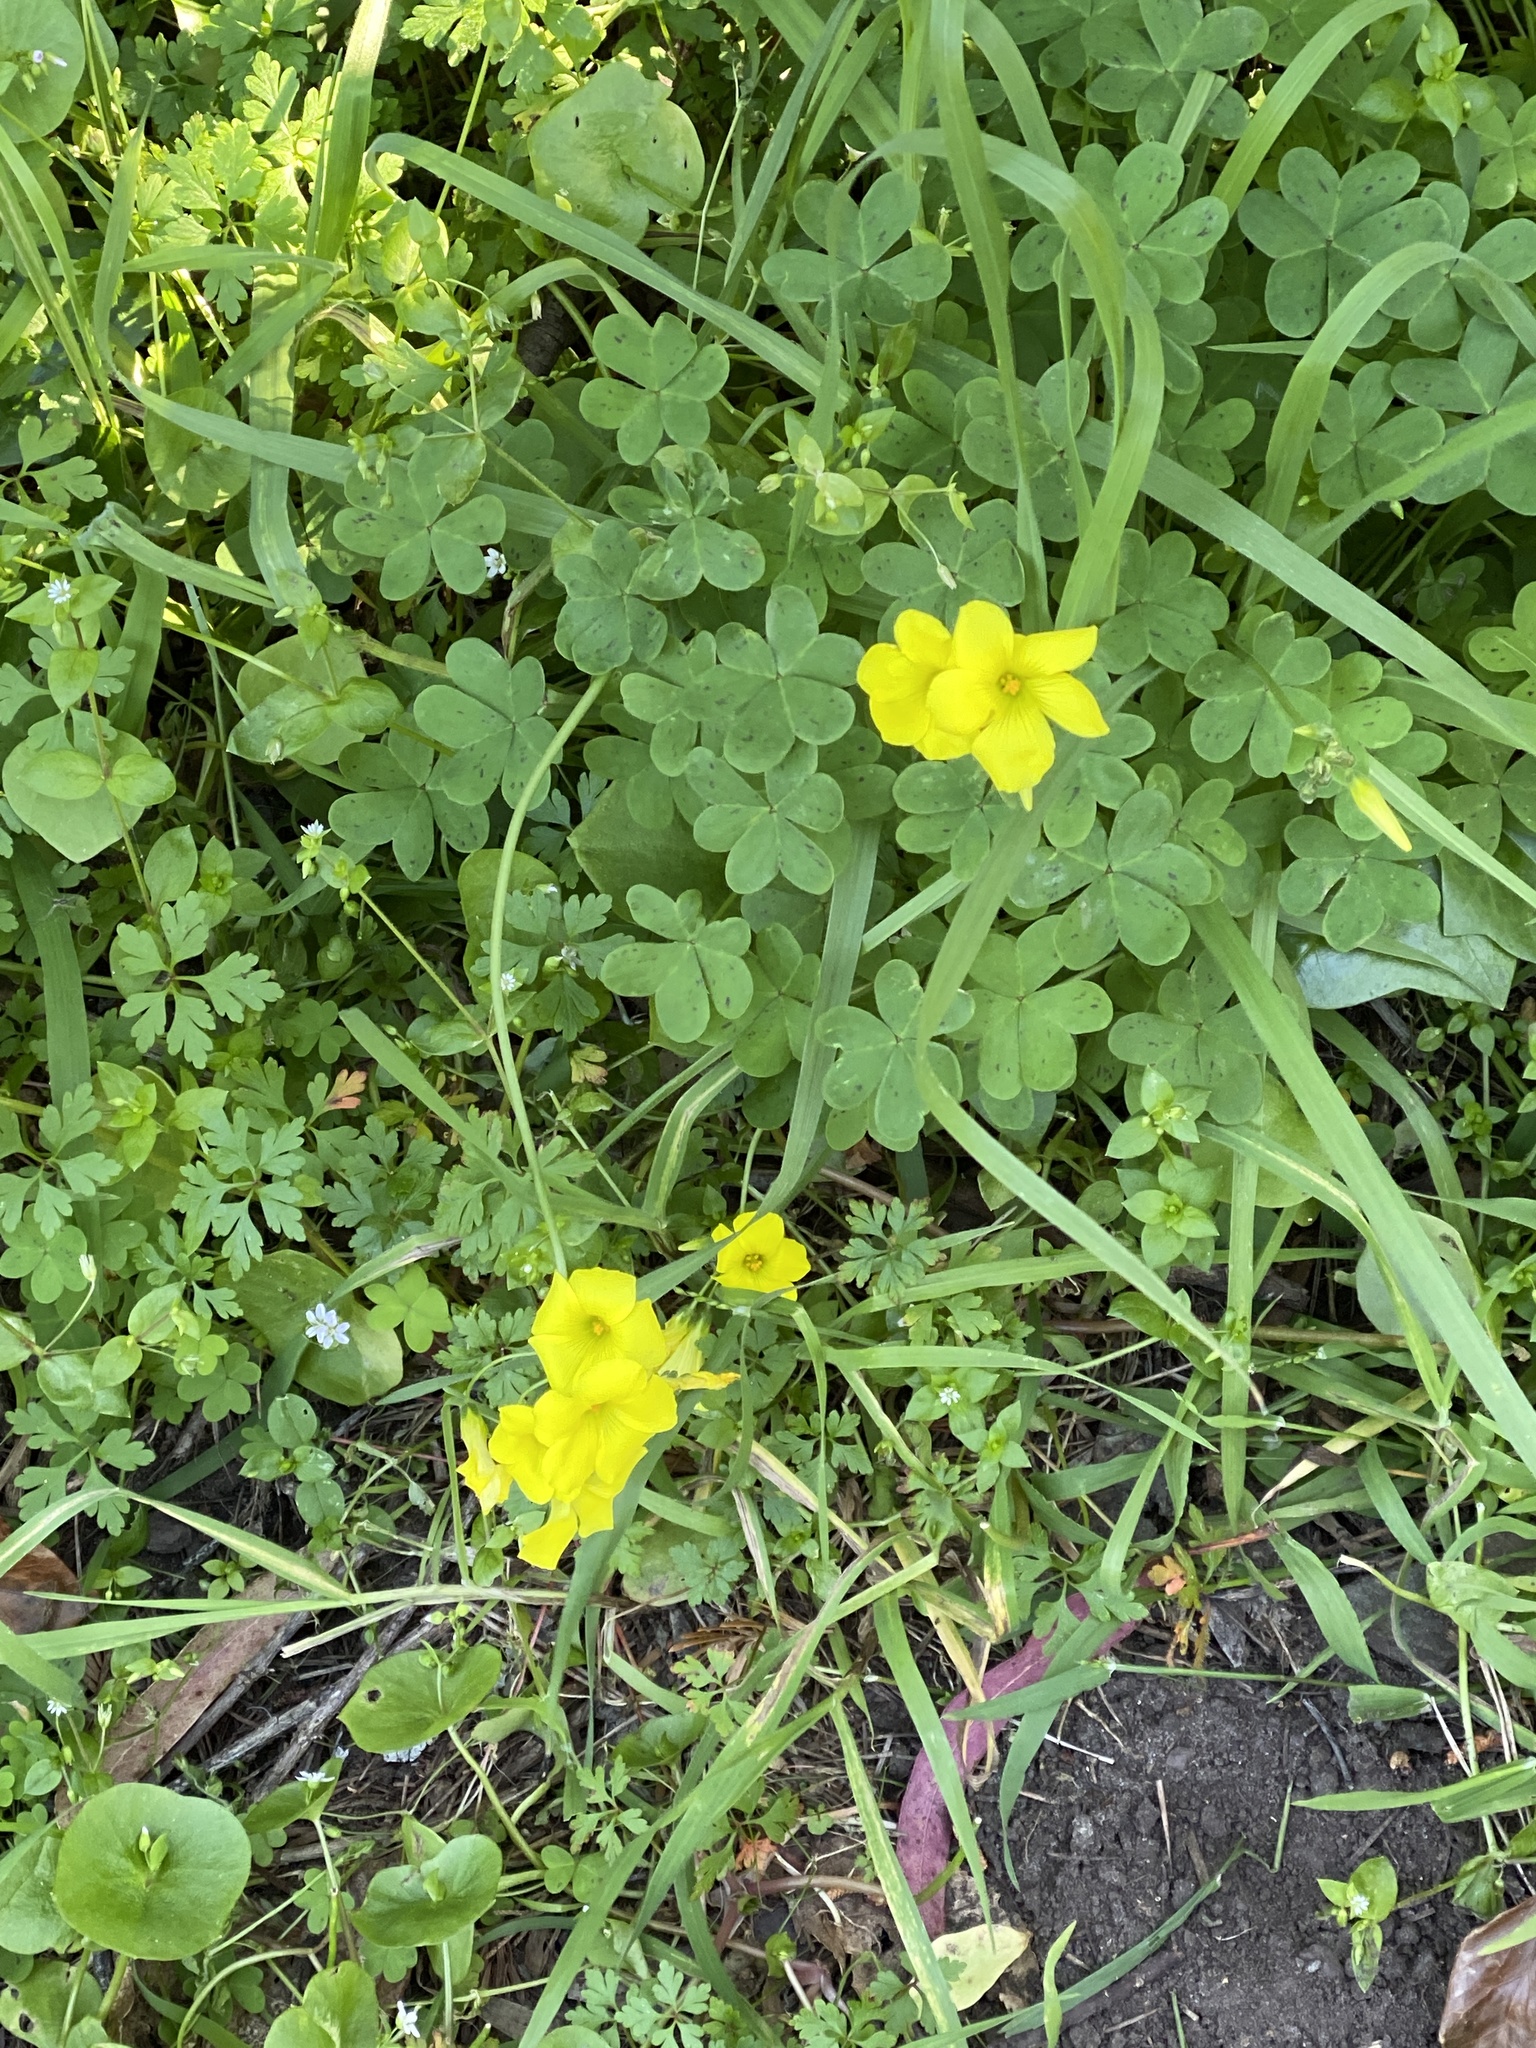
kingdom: Plantae
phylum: Tracheophyta
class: Magnoliopsida
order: Oxalidales
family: Oxalidaceae
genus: Oxalis
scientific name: Oxalis pes-caprae
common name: Bermuda-buttercup
